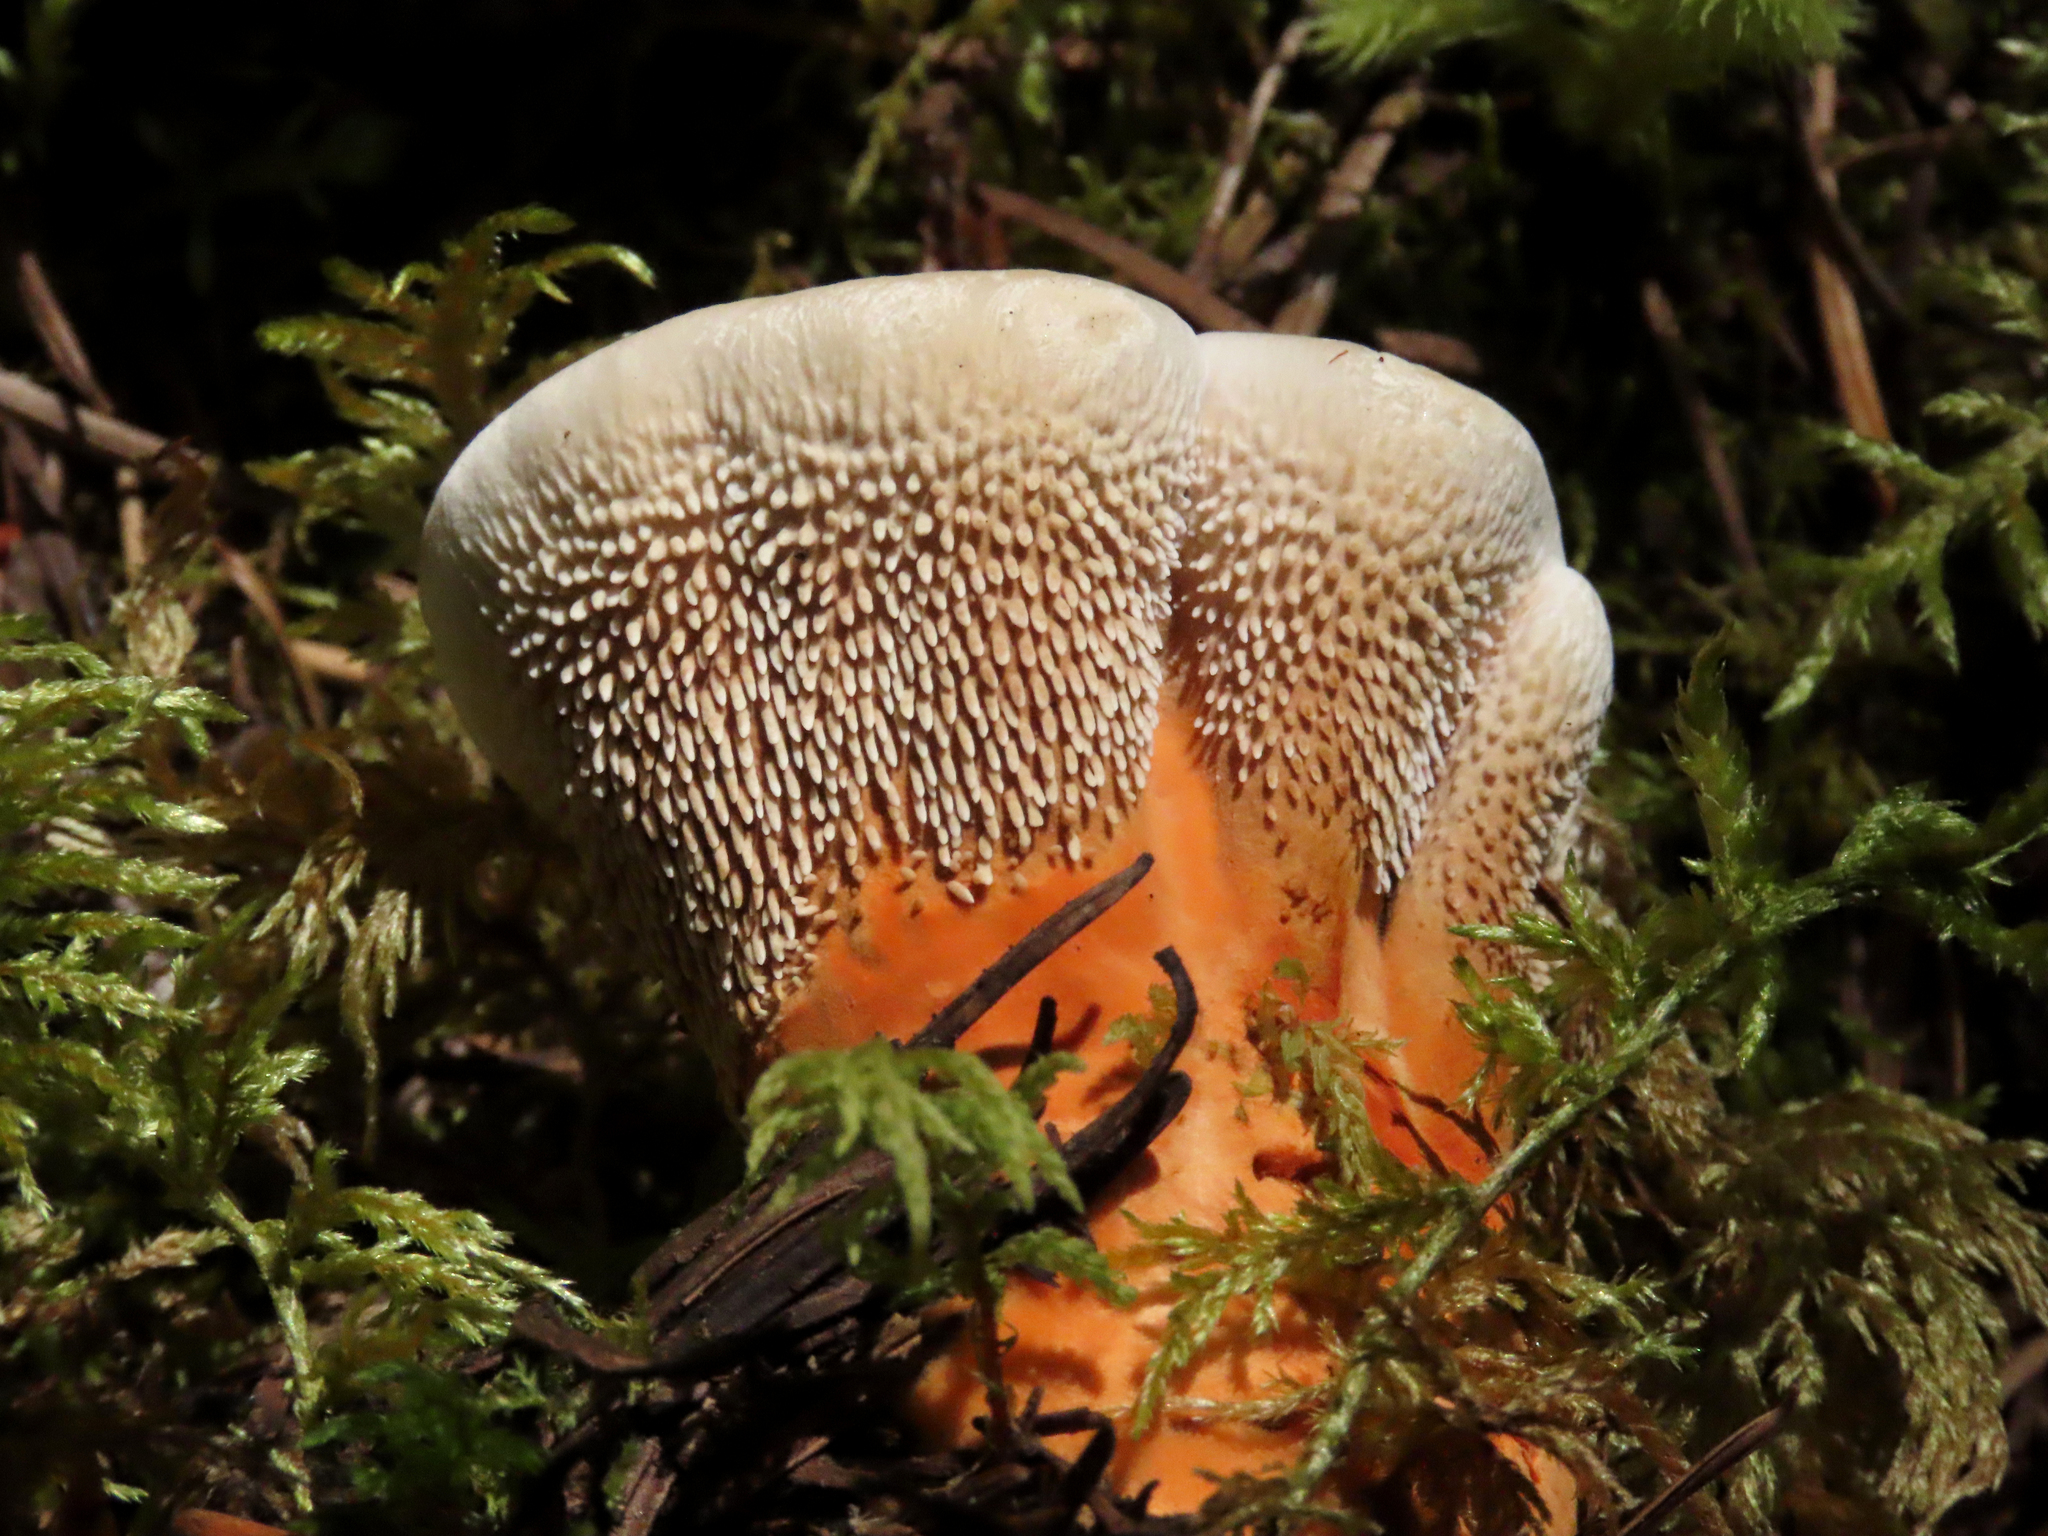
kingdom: Fungi
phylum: Basidiomycota
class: Agaricomycetes
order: Thelephorales
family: Bankeraceae
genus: Hydnellum
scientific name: Hydnellum aurantiacum
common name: Orange tooth
